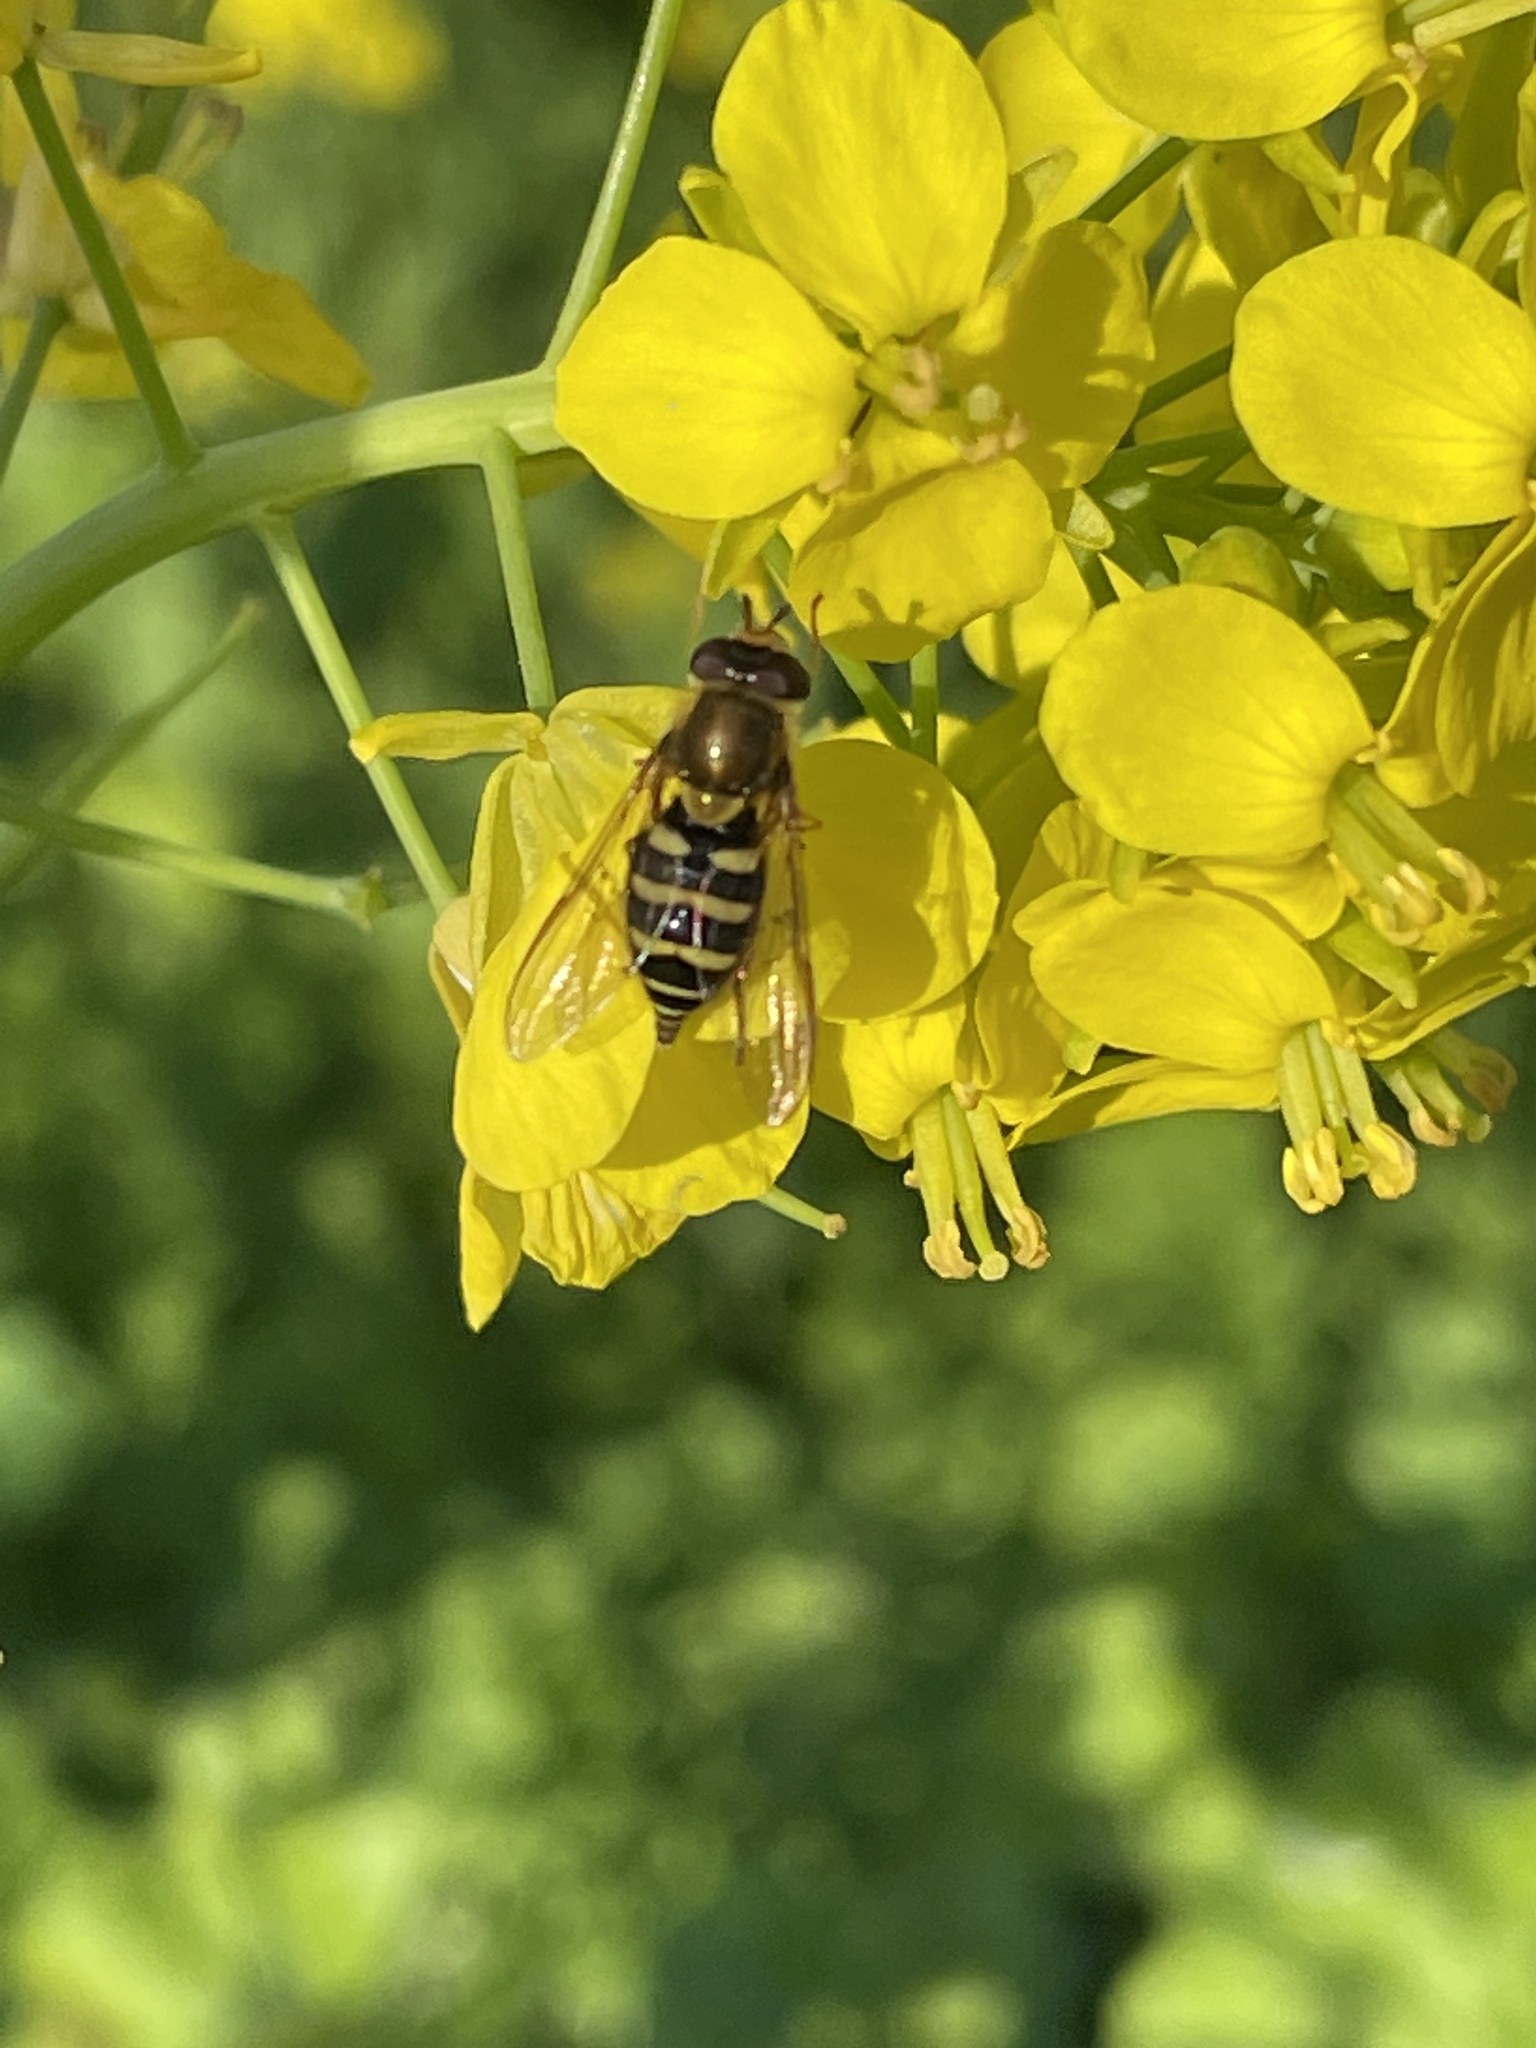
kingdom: Animalia
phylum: Arthropoda
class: Insecta
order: Diptera
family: Syrphidae
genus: Syrphus
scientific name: Syrphus opinator
